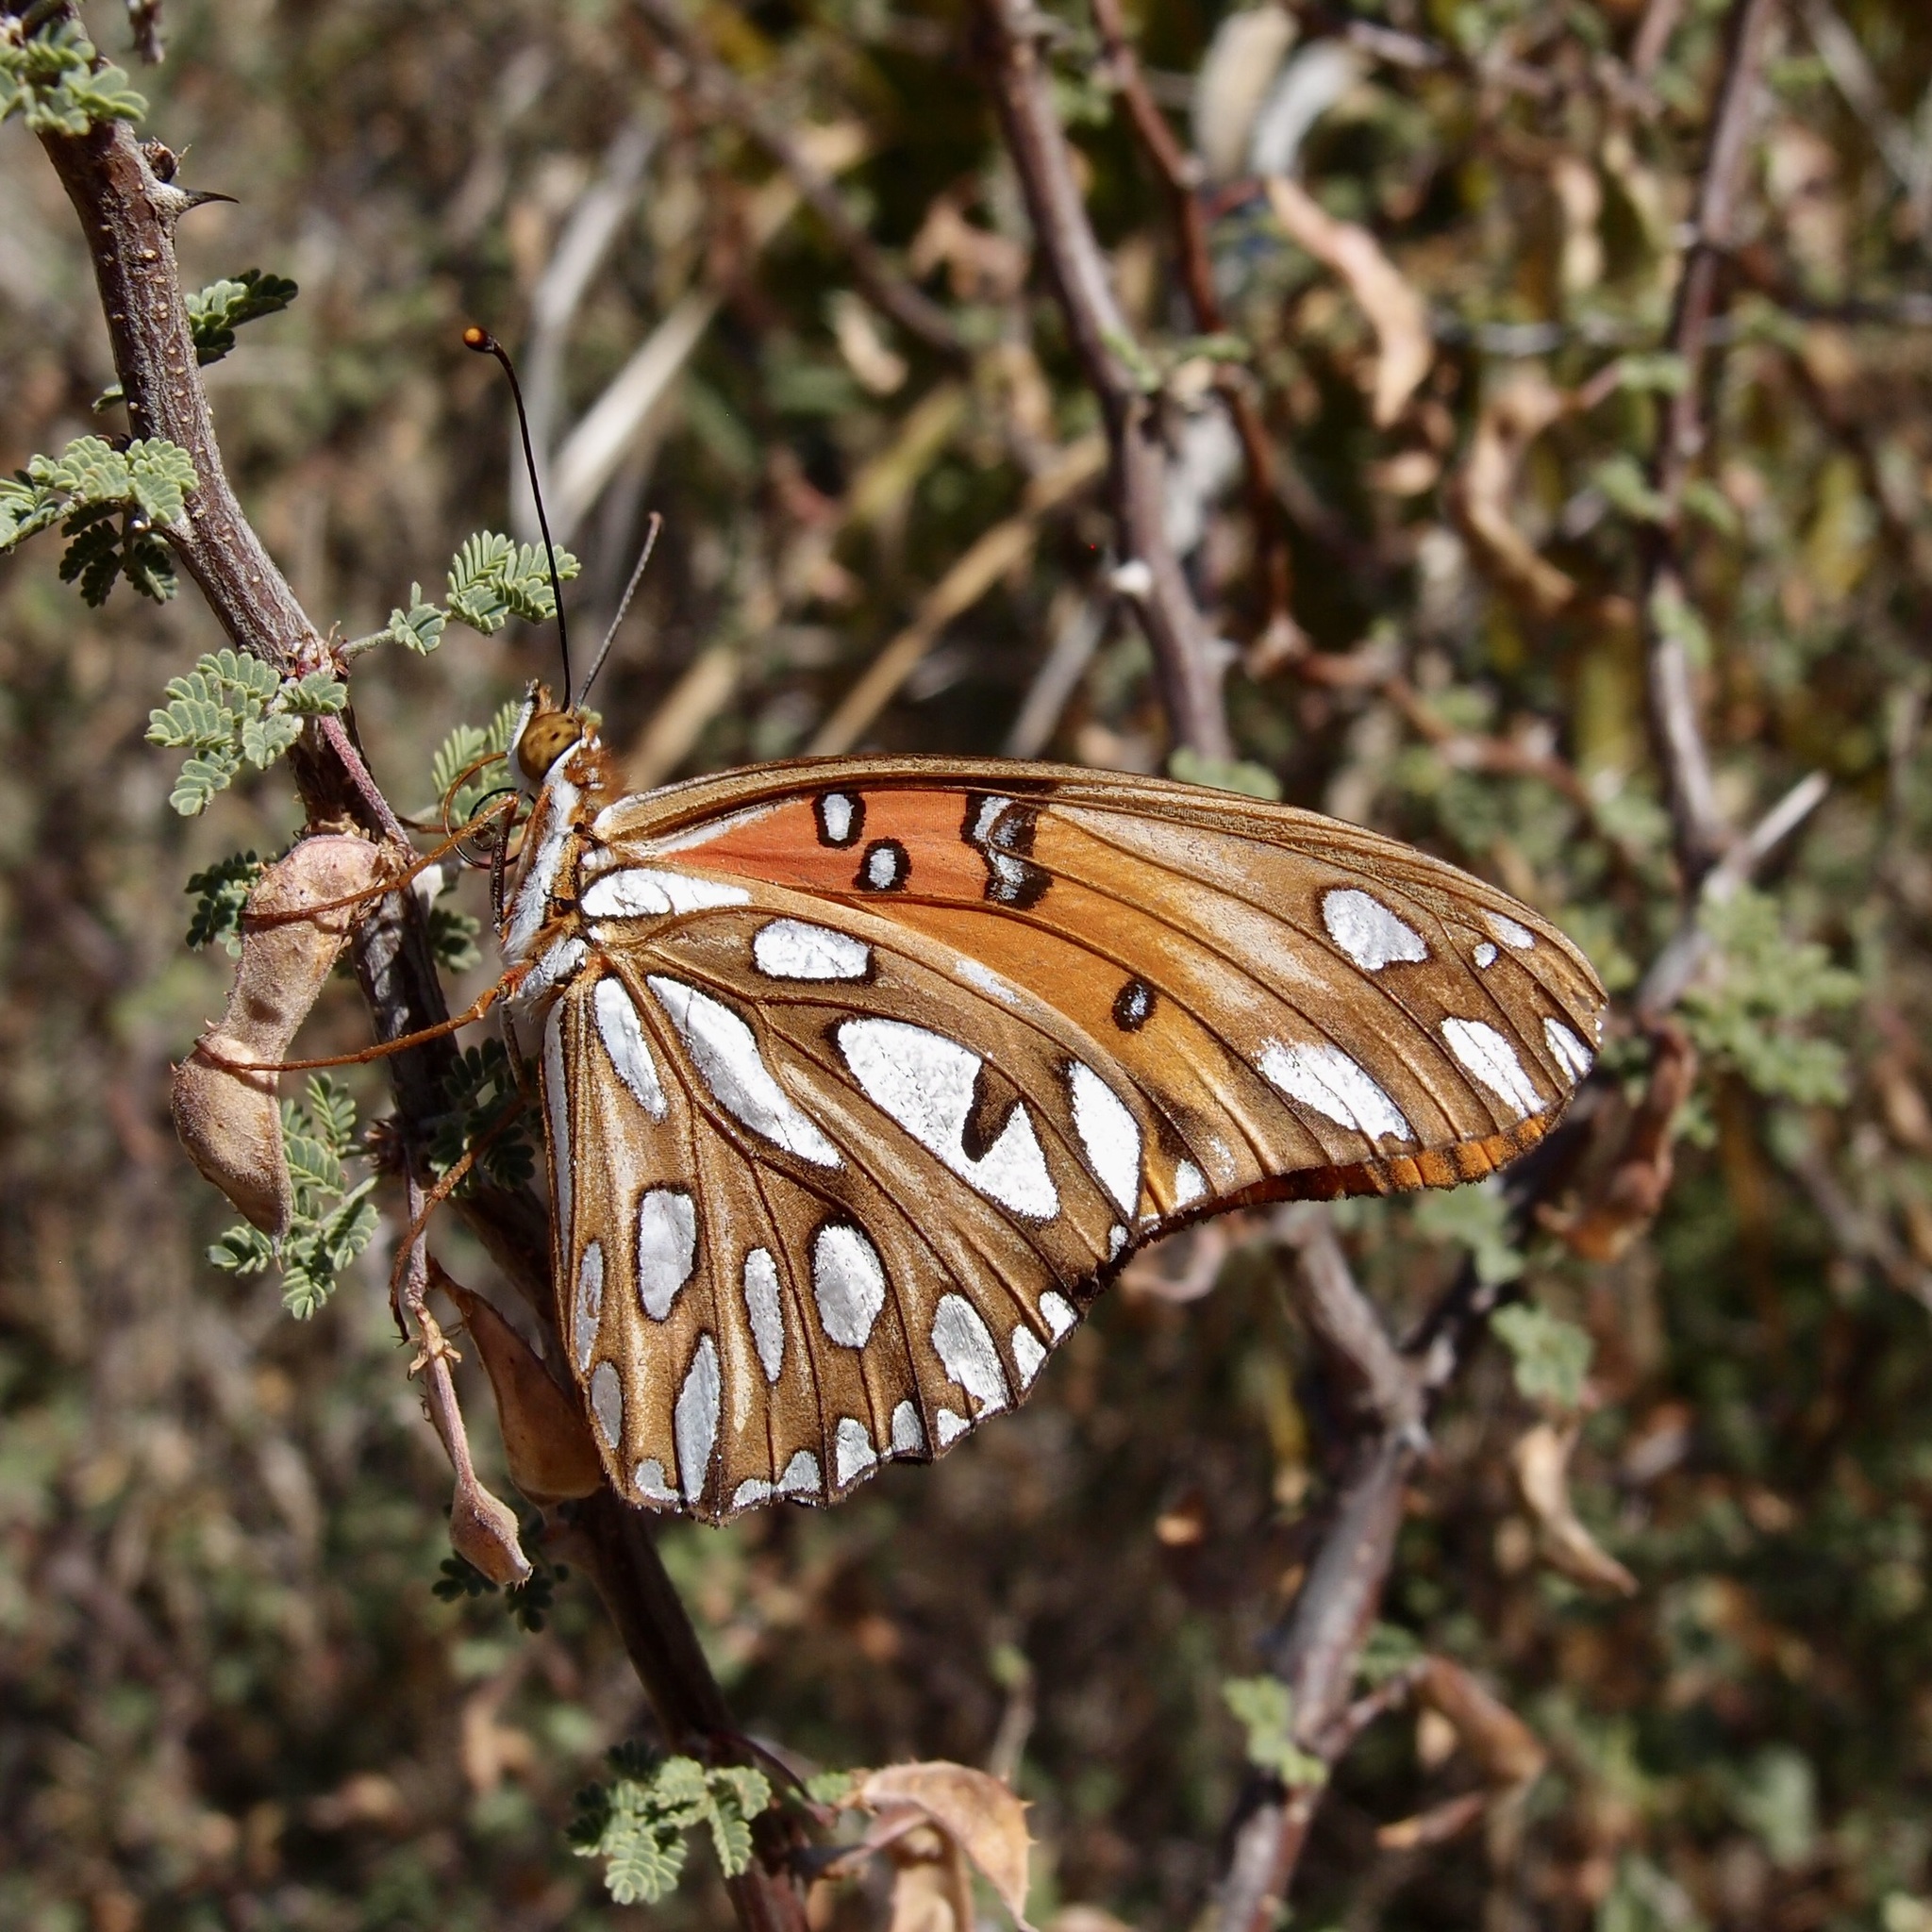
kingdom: Animalia
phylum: Arthropoda
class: Insecta
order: Lepidoptera
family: Nymphalidae
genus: Dione
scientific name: Dione vanillae
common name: Gulf fritillary
